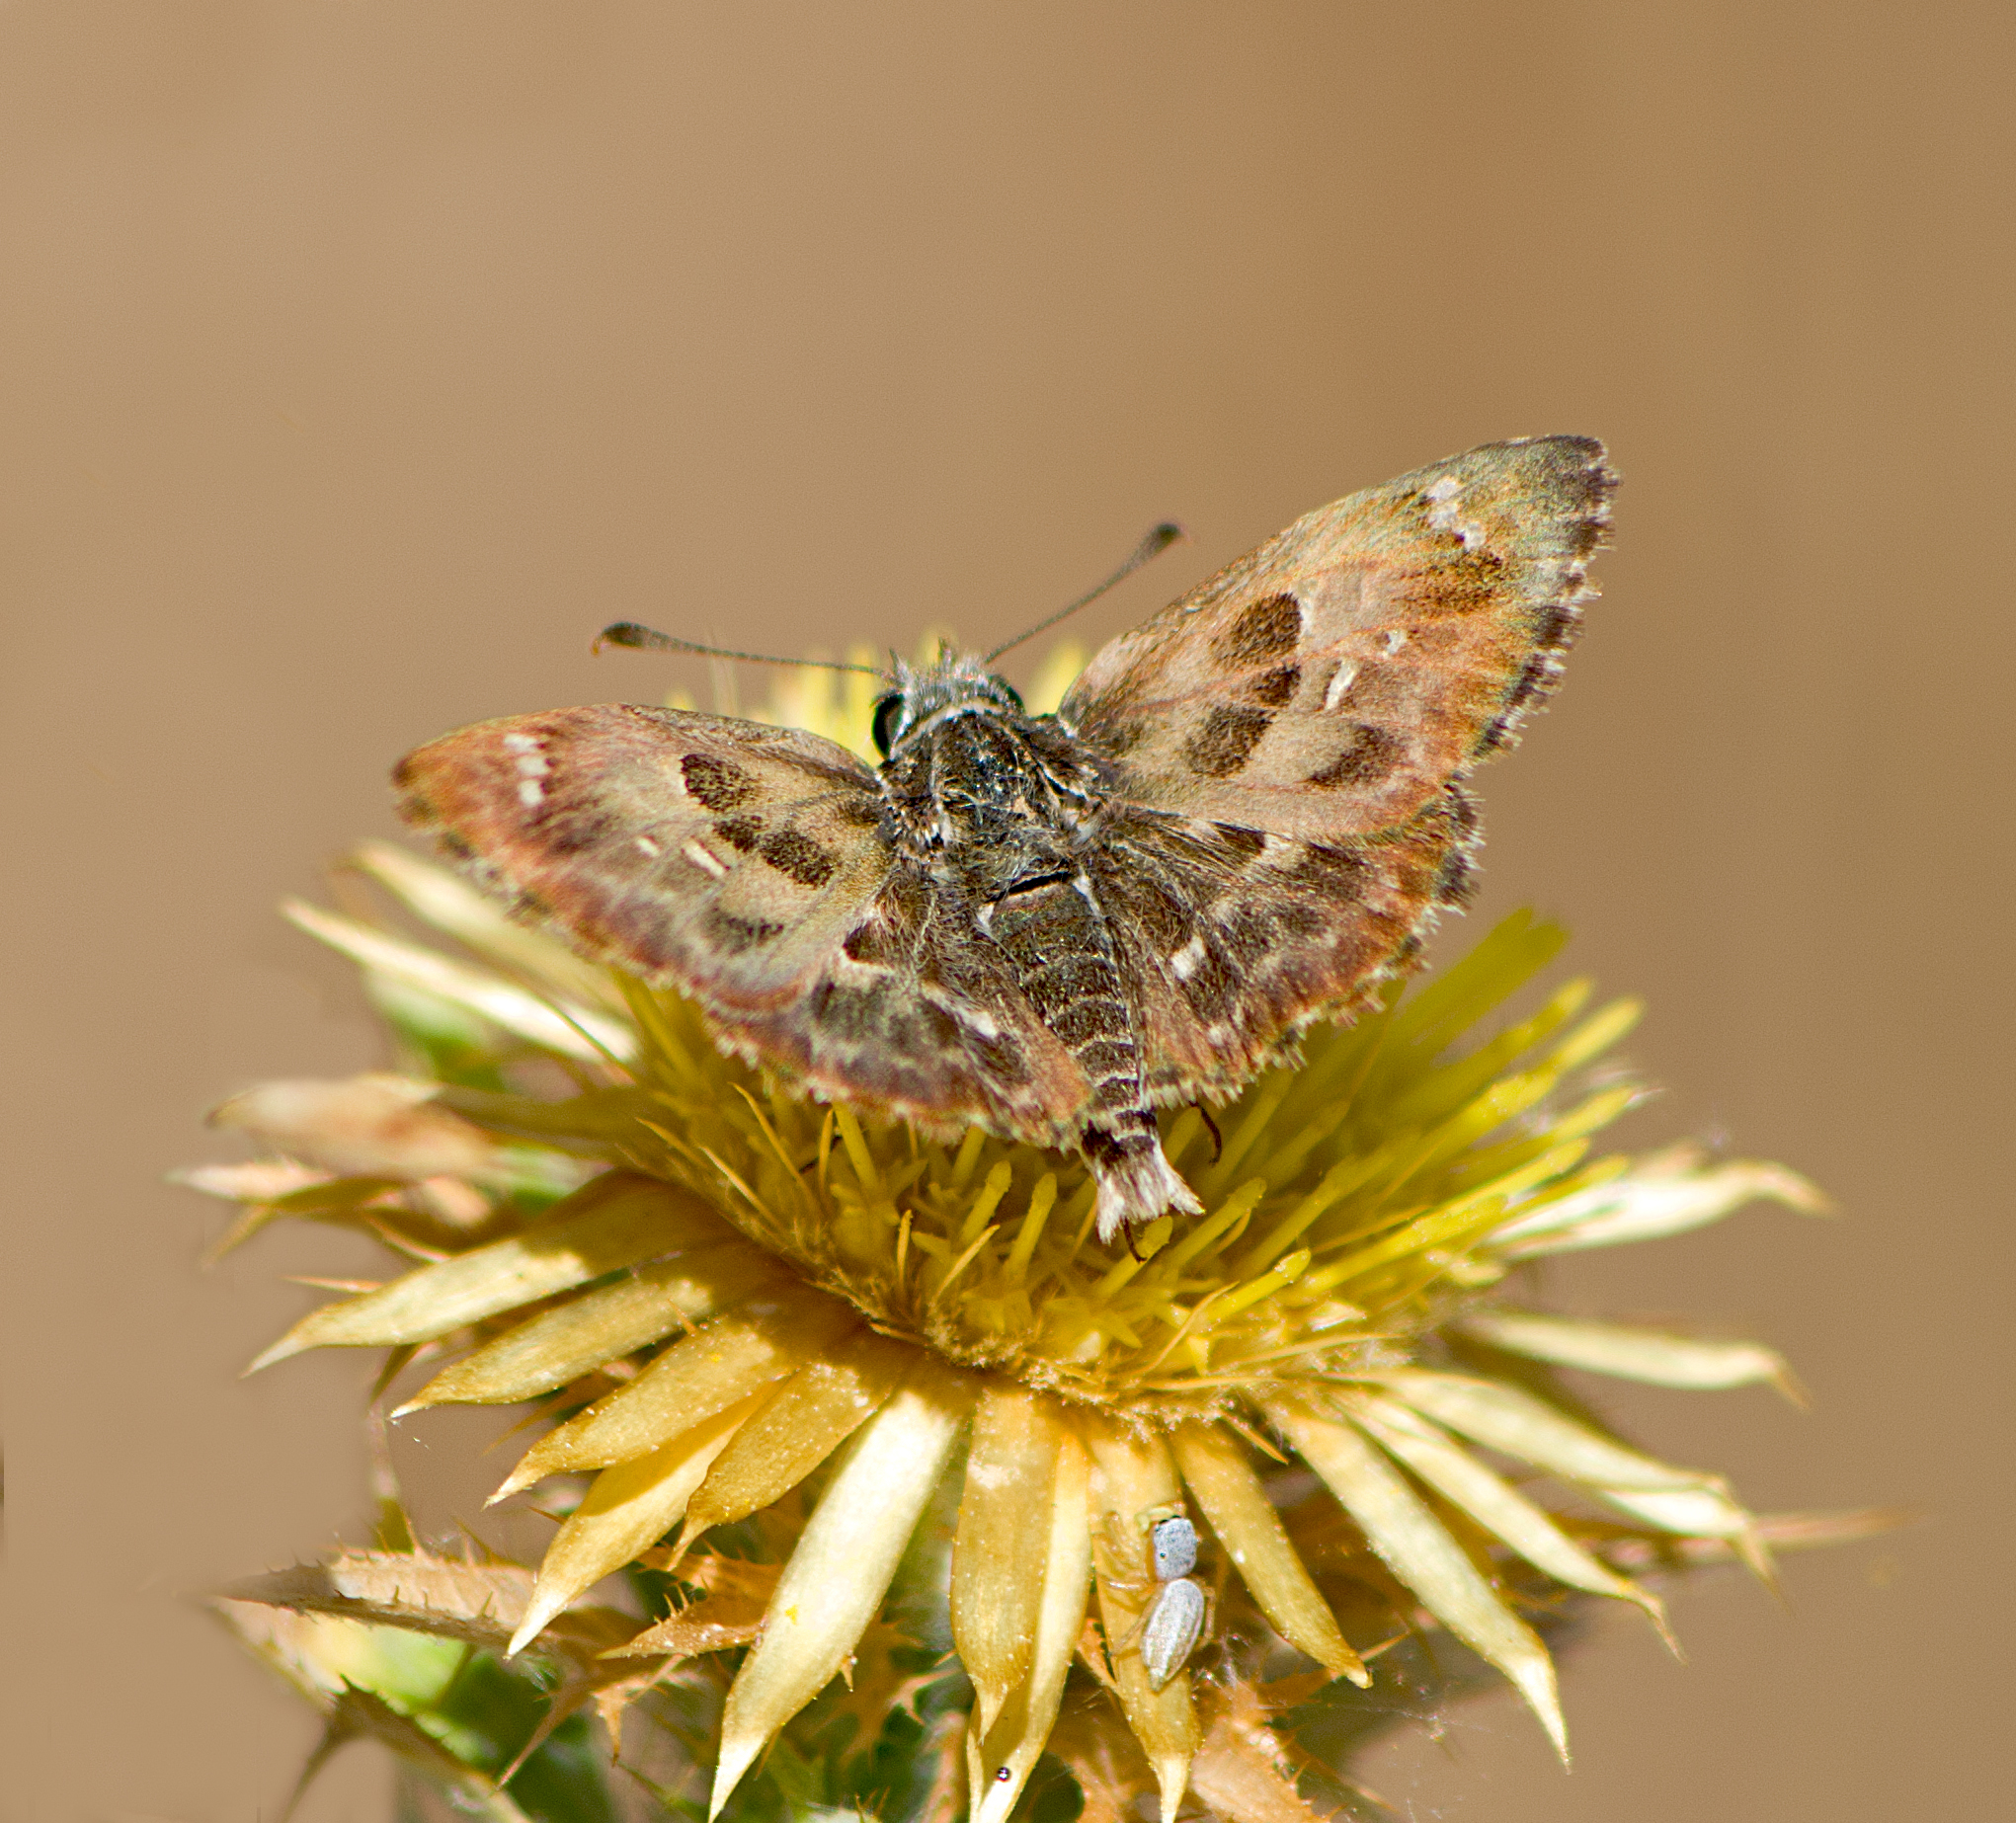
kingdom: Animalia
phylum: Arthropoda
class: Insecta
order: Lepidoptera
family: Hesperiidae
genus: Carcharodus
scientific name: Carcharodus alceae
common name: Mallow skipper
